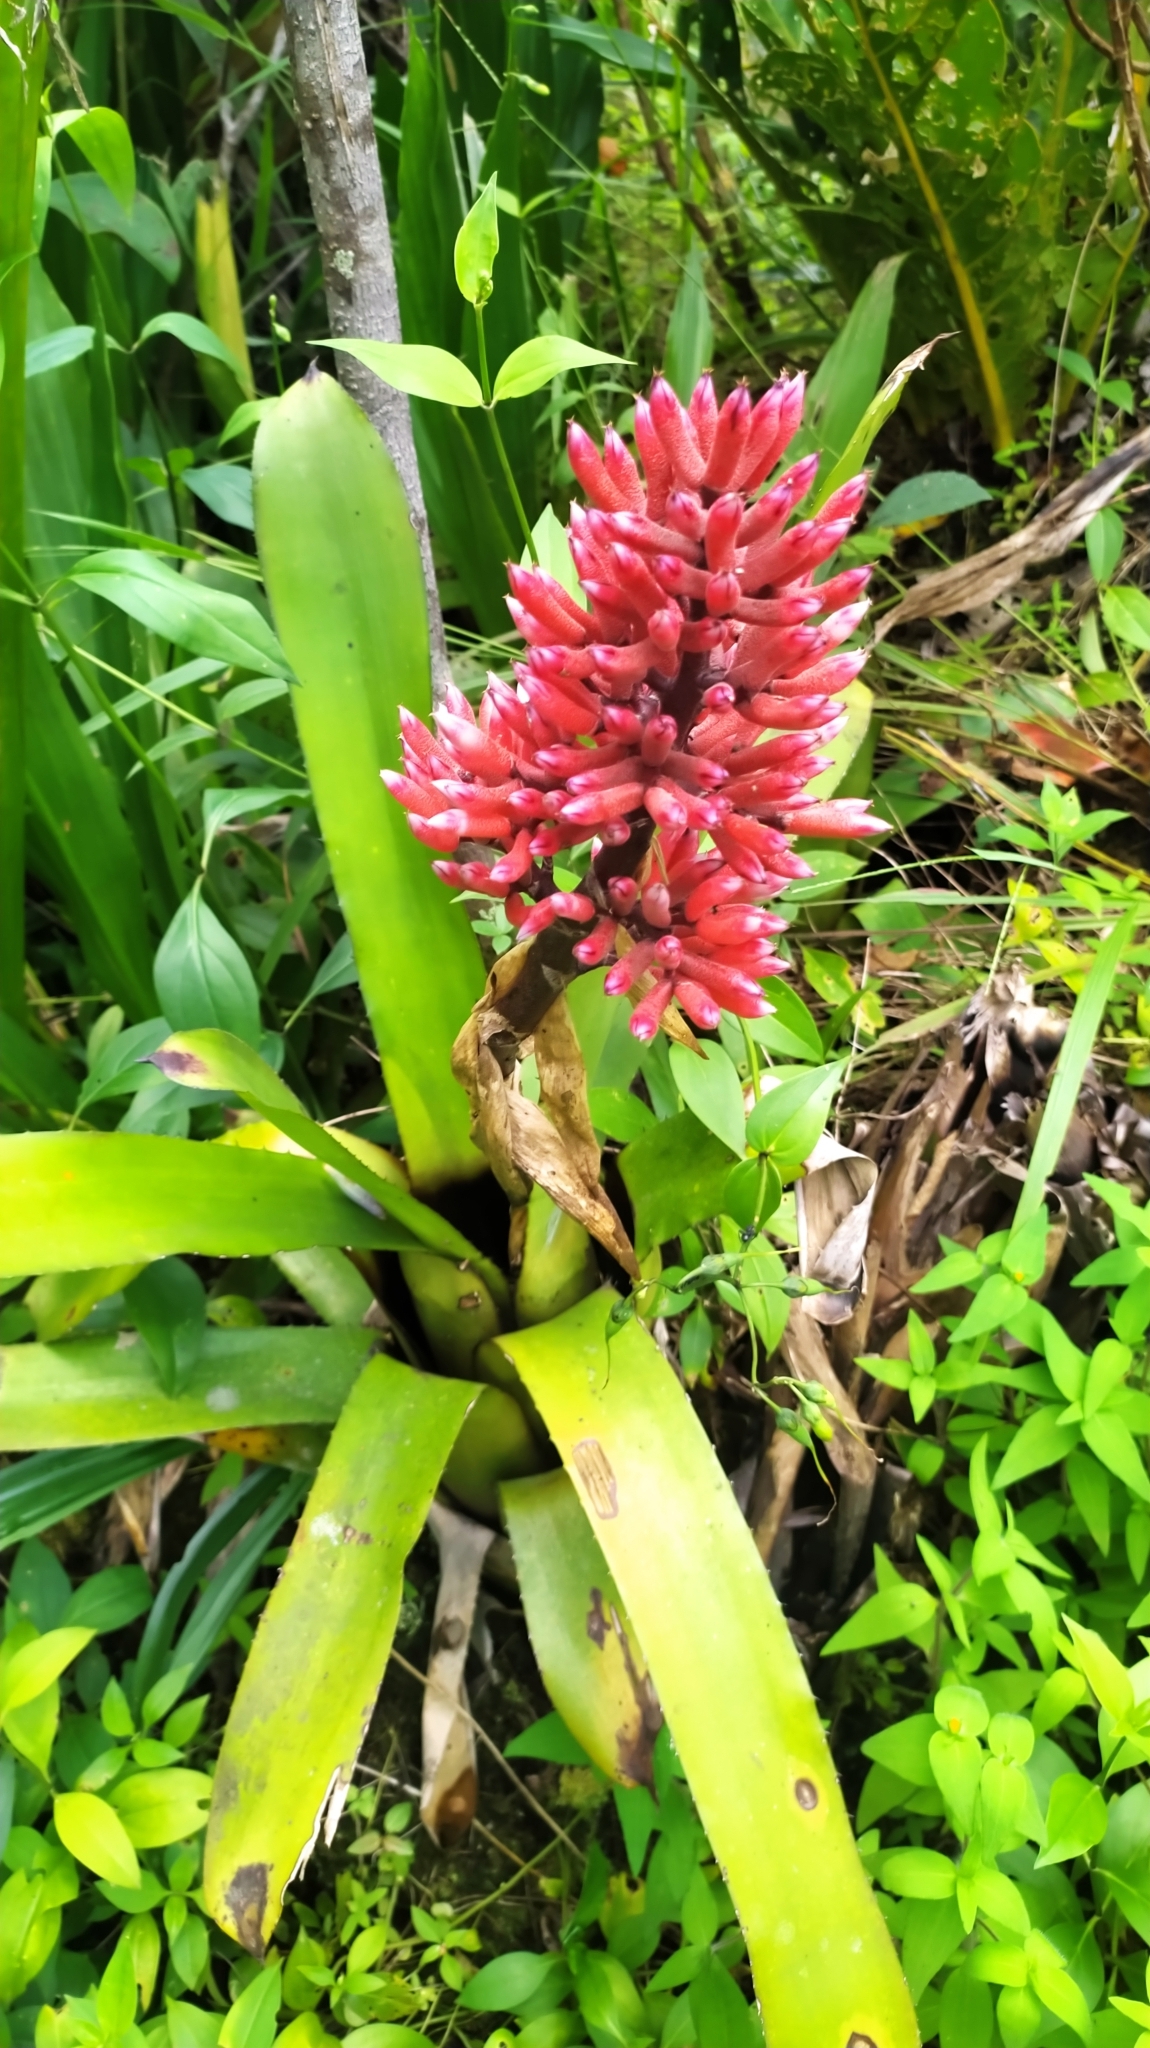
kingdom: Plantae
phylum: Tracheophyta
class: Liliopsida
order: Poales
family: Bromeliaceae
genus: Aechmea
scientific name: Aechmea melinonii
